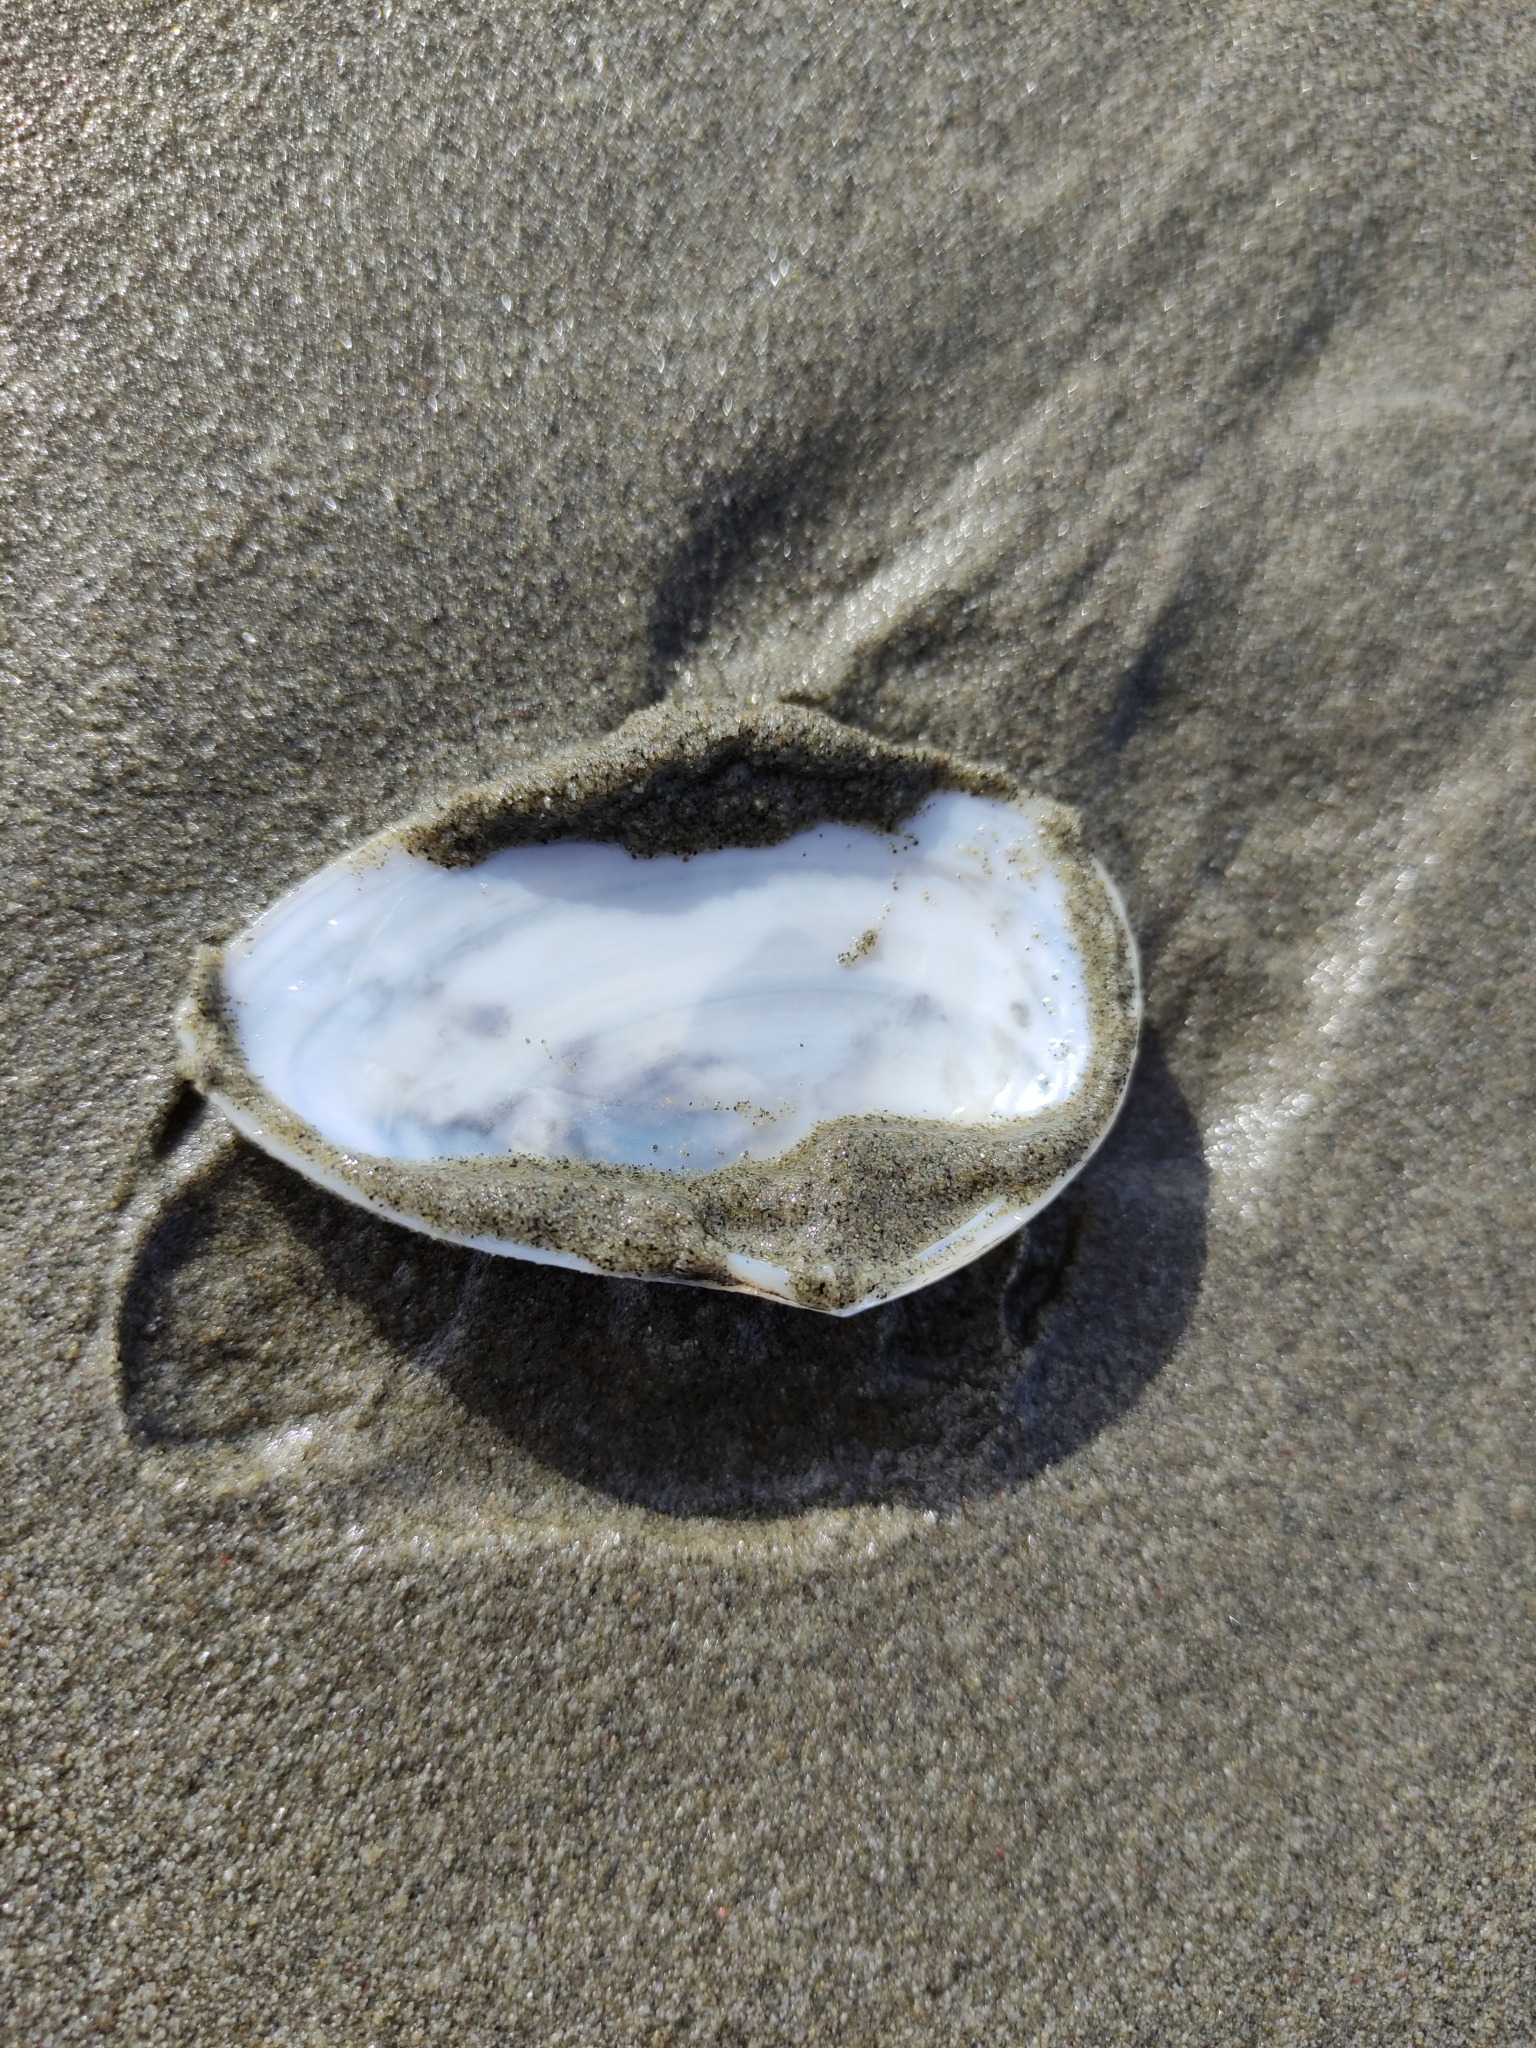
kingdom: Animalia
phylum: Mollusca
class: Bivalvia
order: Cardiida
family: Tellinidae
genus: Bartschicoma
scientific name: Bartschicoma gaimardi
